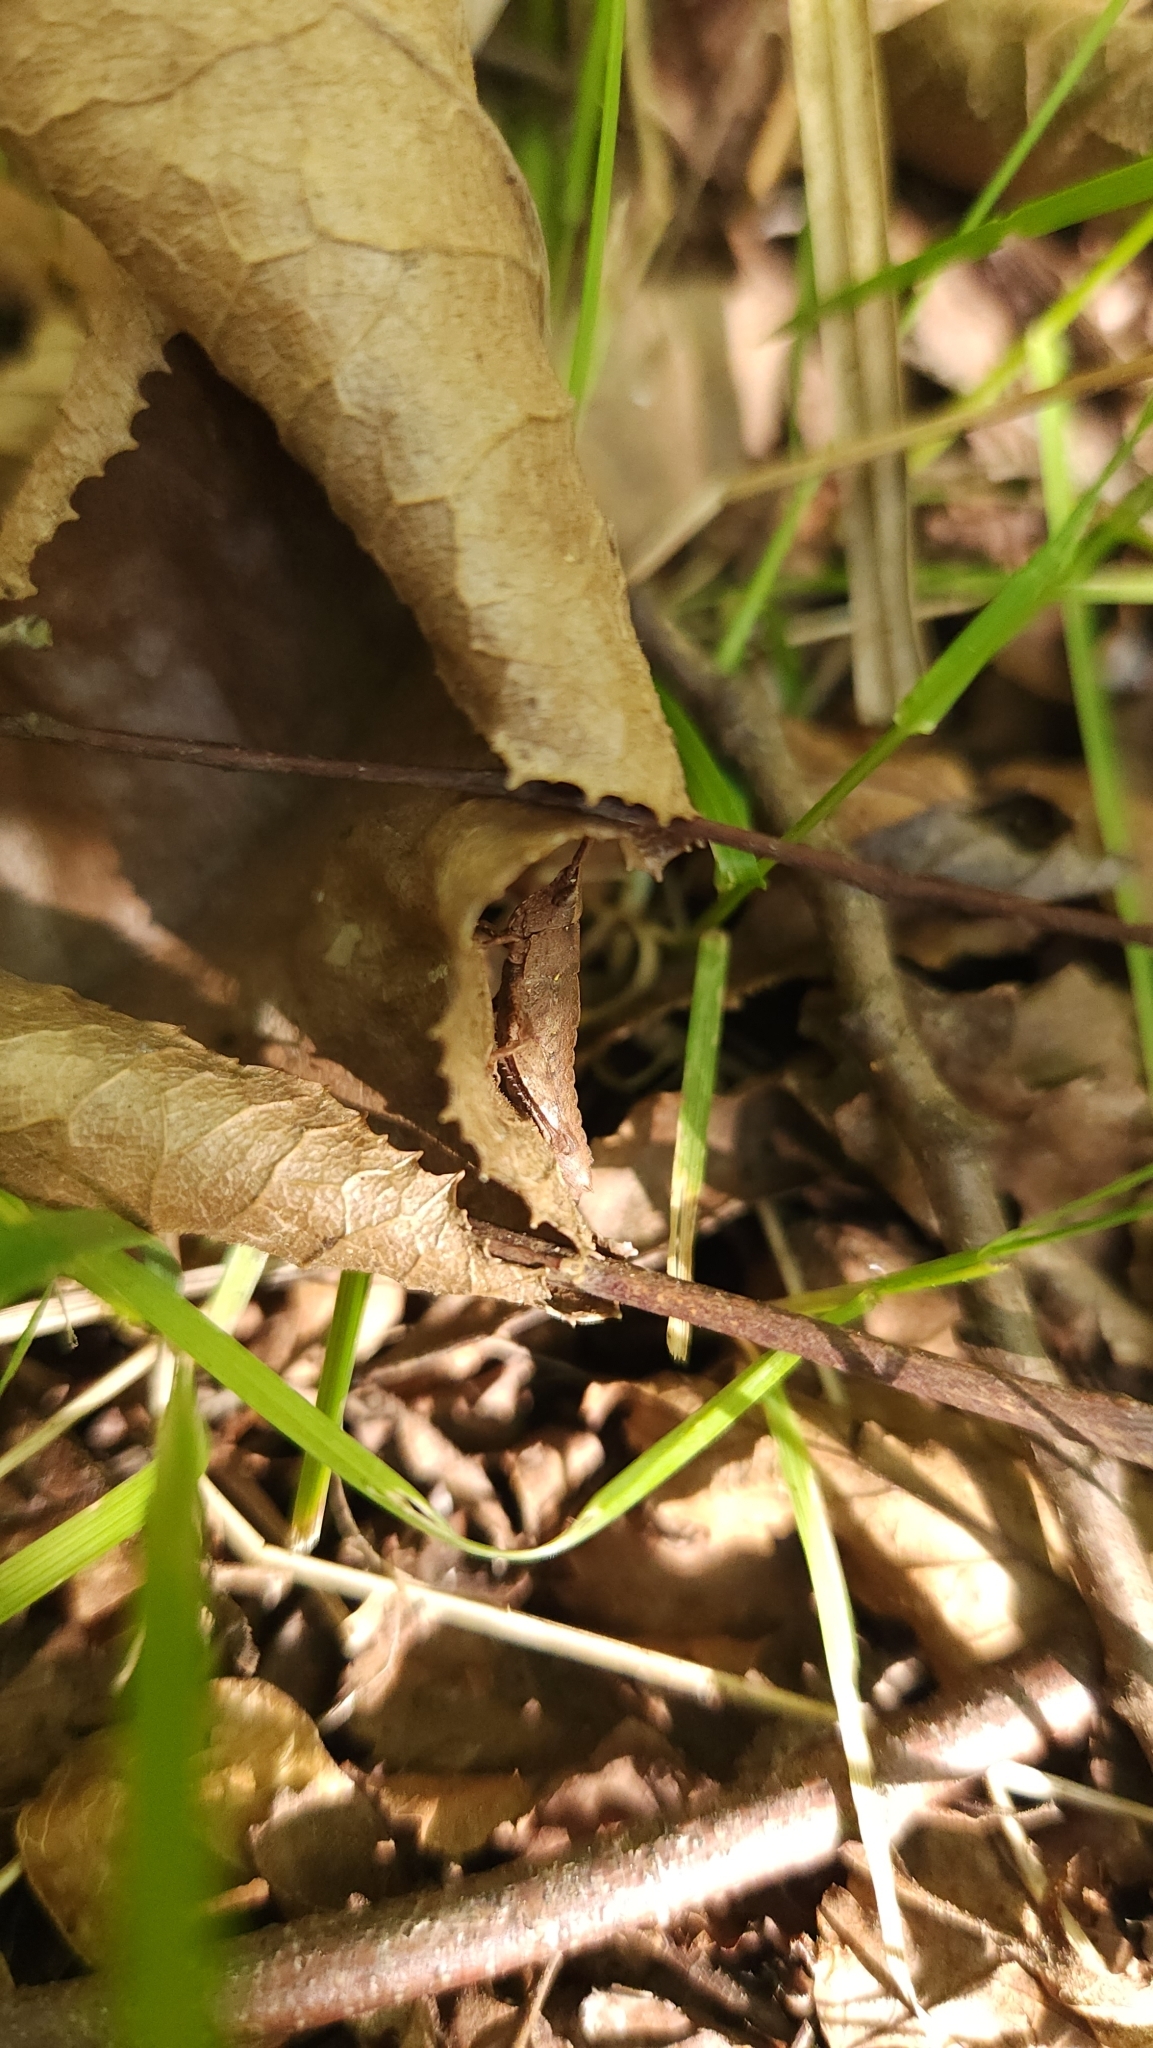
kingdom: Animalia
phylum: Arthropoda
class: Insecta
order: Orthoptera
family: Tristiridae
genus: Tropidostethus
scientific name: Tropidostethus angusticollis
